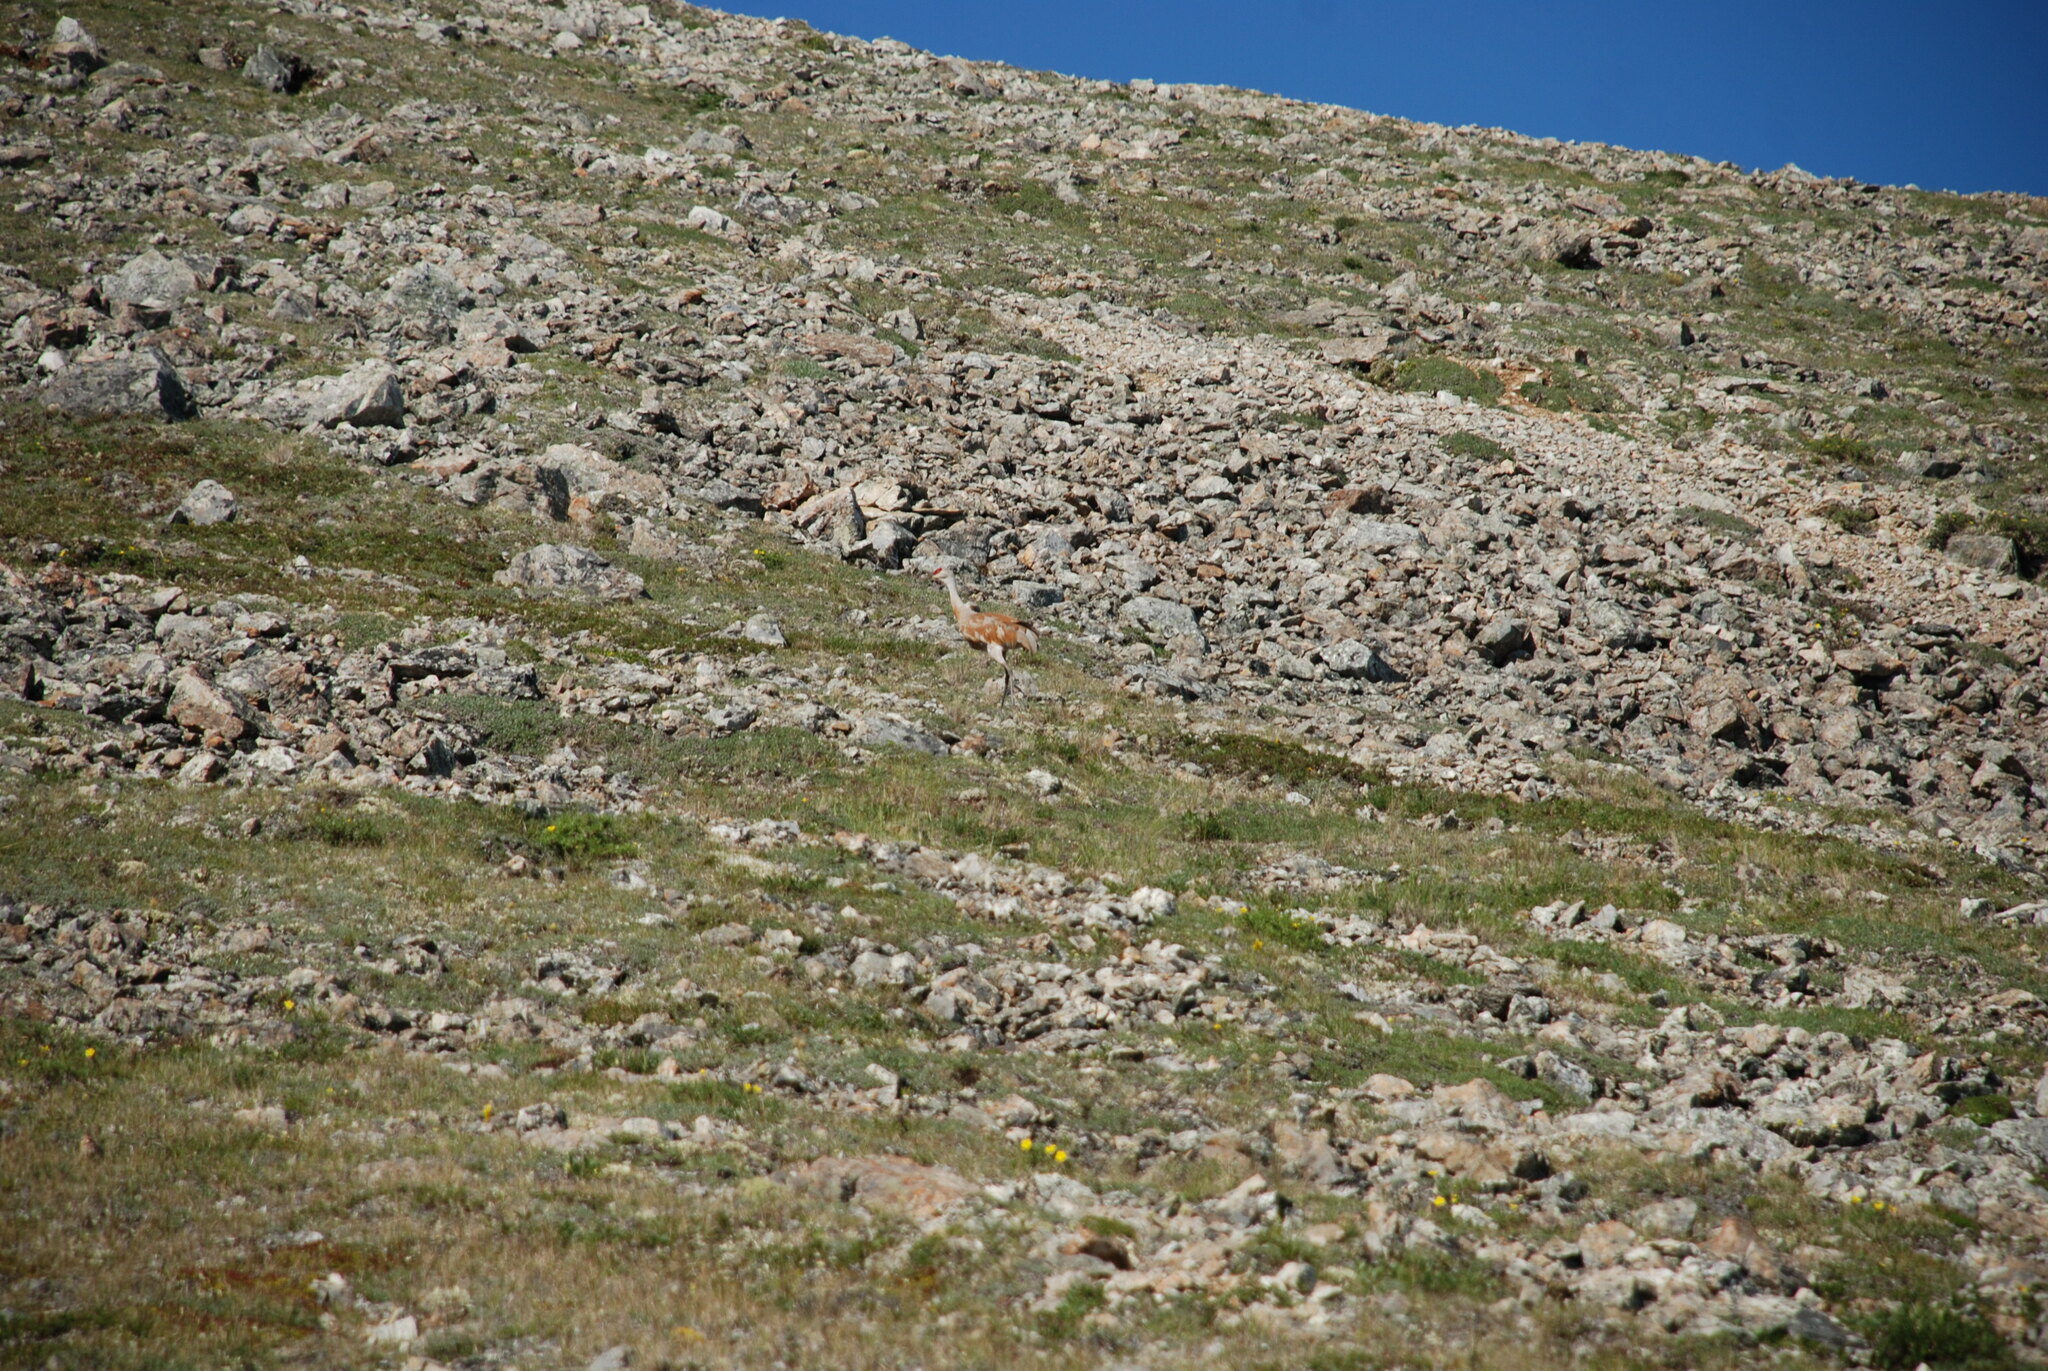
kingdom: Animalia
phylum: Chordata
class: Aves
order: Gruiformes
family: Gruidae
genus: Grus
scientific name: Grus canadensis
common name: Sandhill crane
